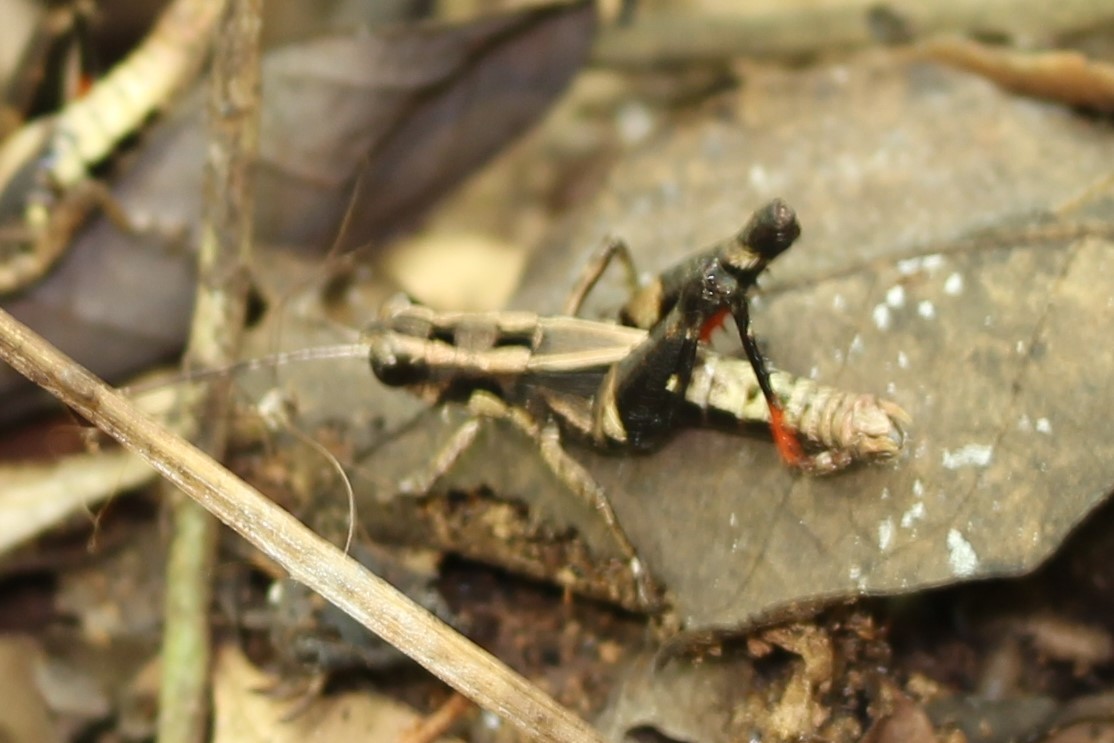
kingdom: Animalia
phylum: Arthropoda
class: Insecta
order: Orthoptera
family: Acrididae
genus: Traulia
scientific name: Traulia ornata
